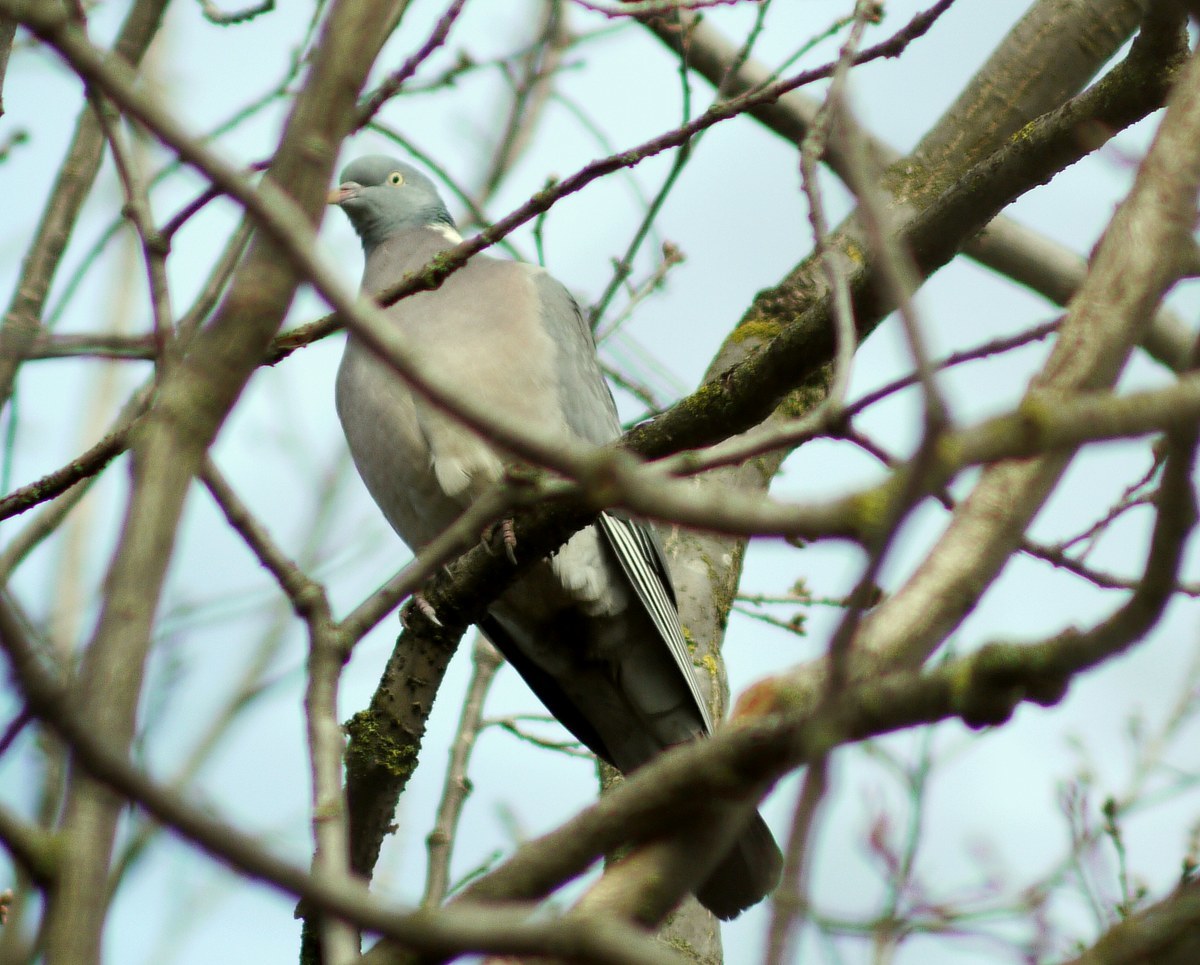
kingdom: Animalia
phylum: Chordata
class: Aves
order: Columbiformes
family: Columbidae
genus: Columba
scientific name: Columba palumbus
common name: Common wood pigeon
